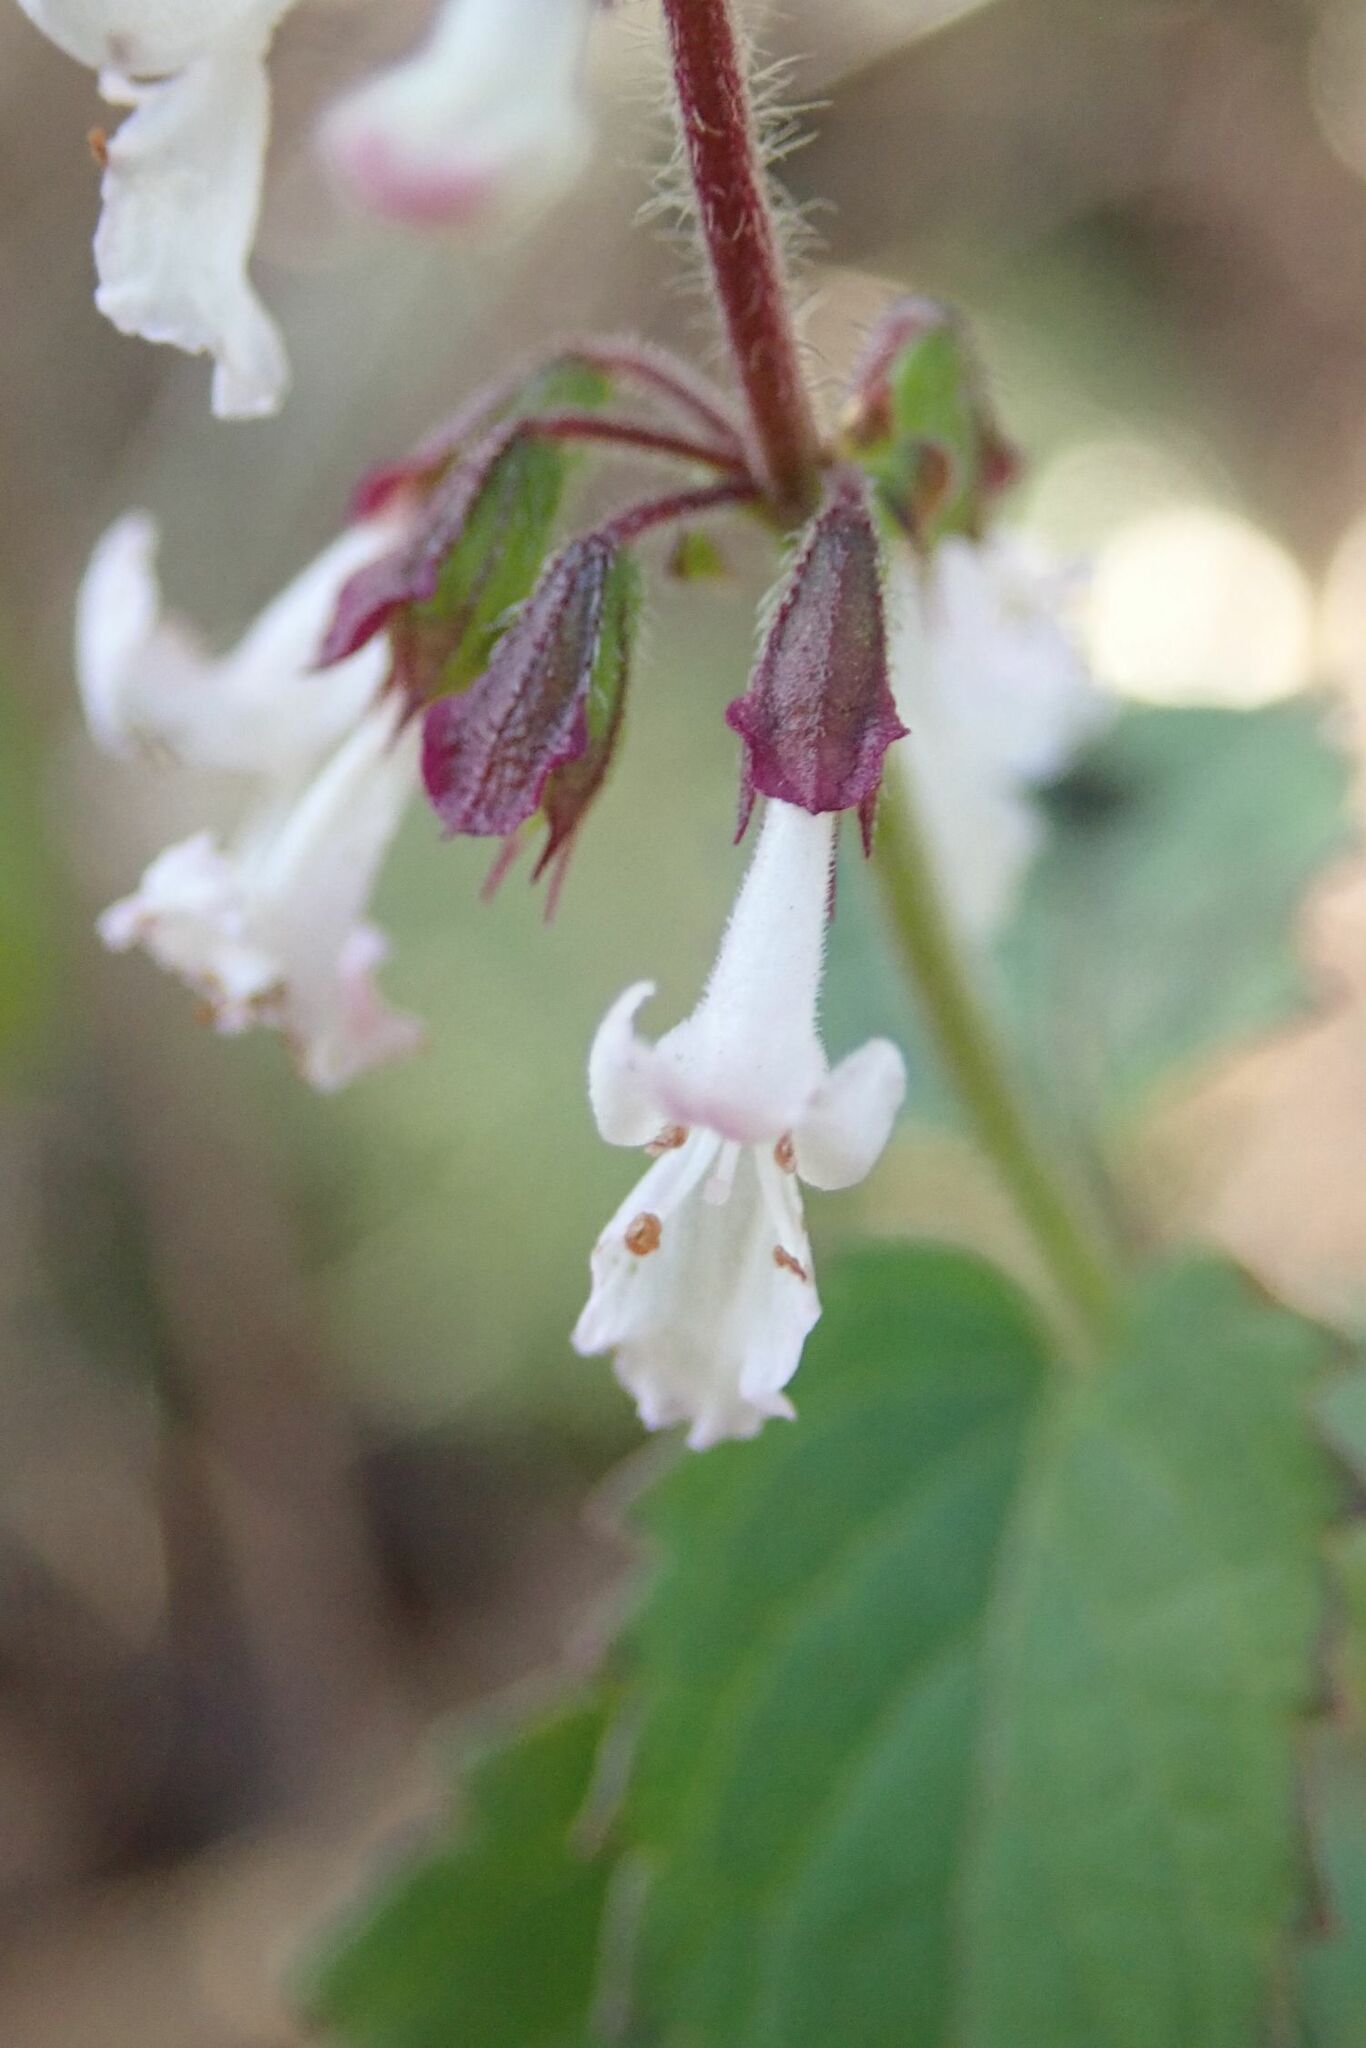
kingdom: Plantae
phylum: Tracheophyta
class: Magnoliopsida
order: Lamiales
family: Lamiaceae
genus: Orthosiphon
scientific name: Orthosiphon thymiflorus
